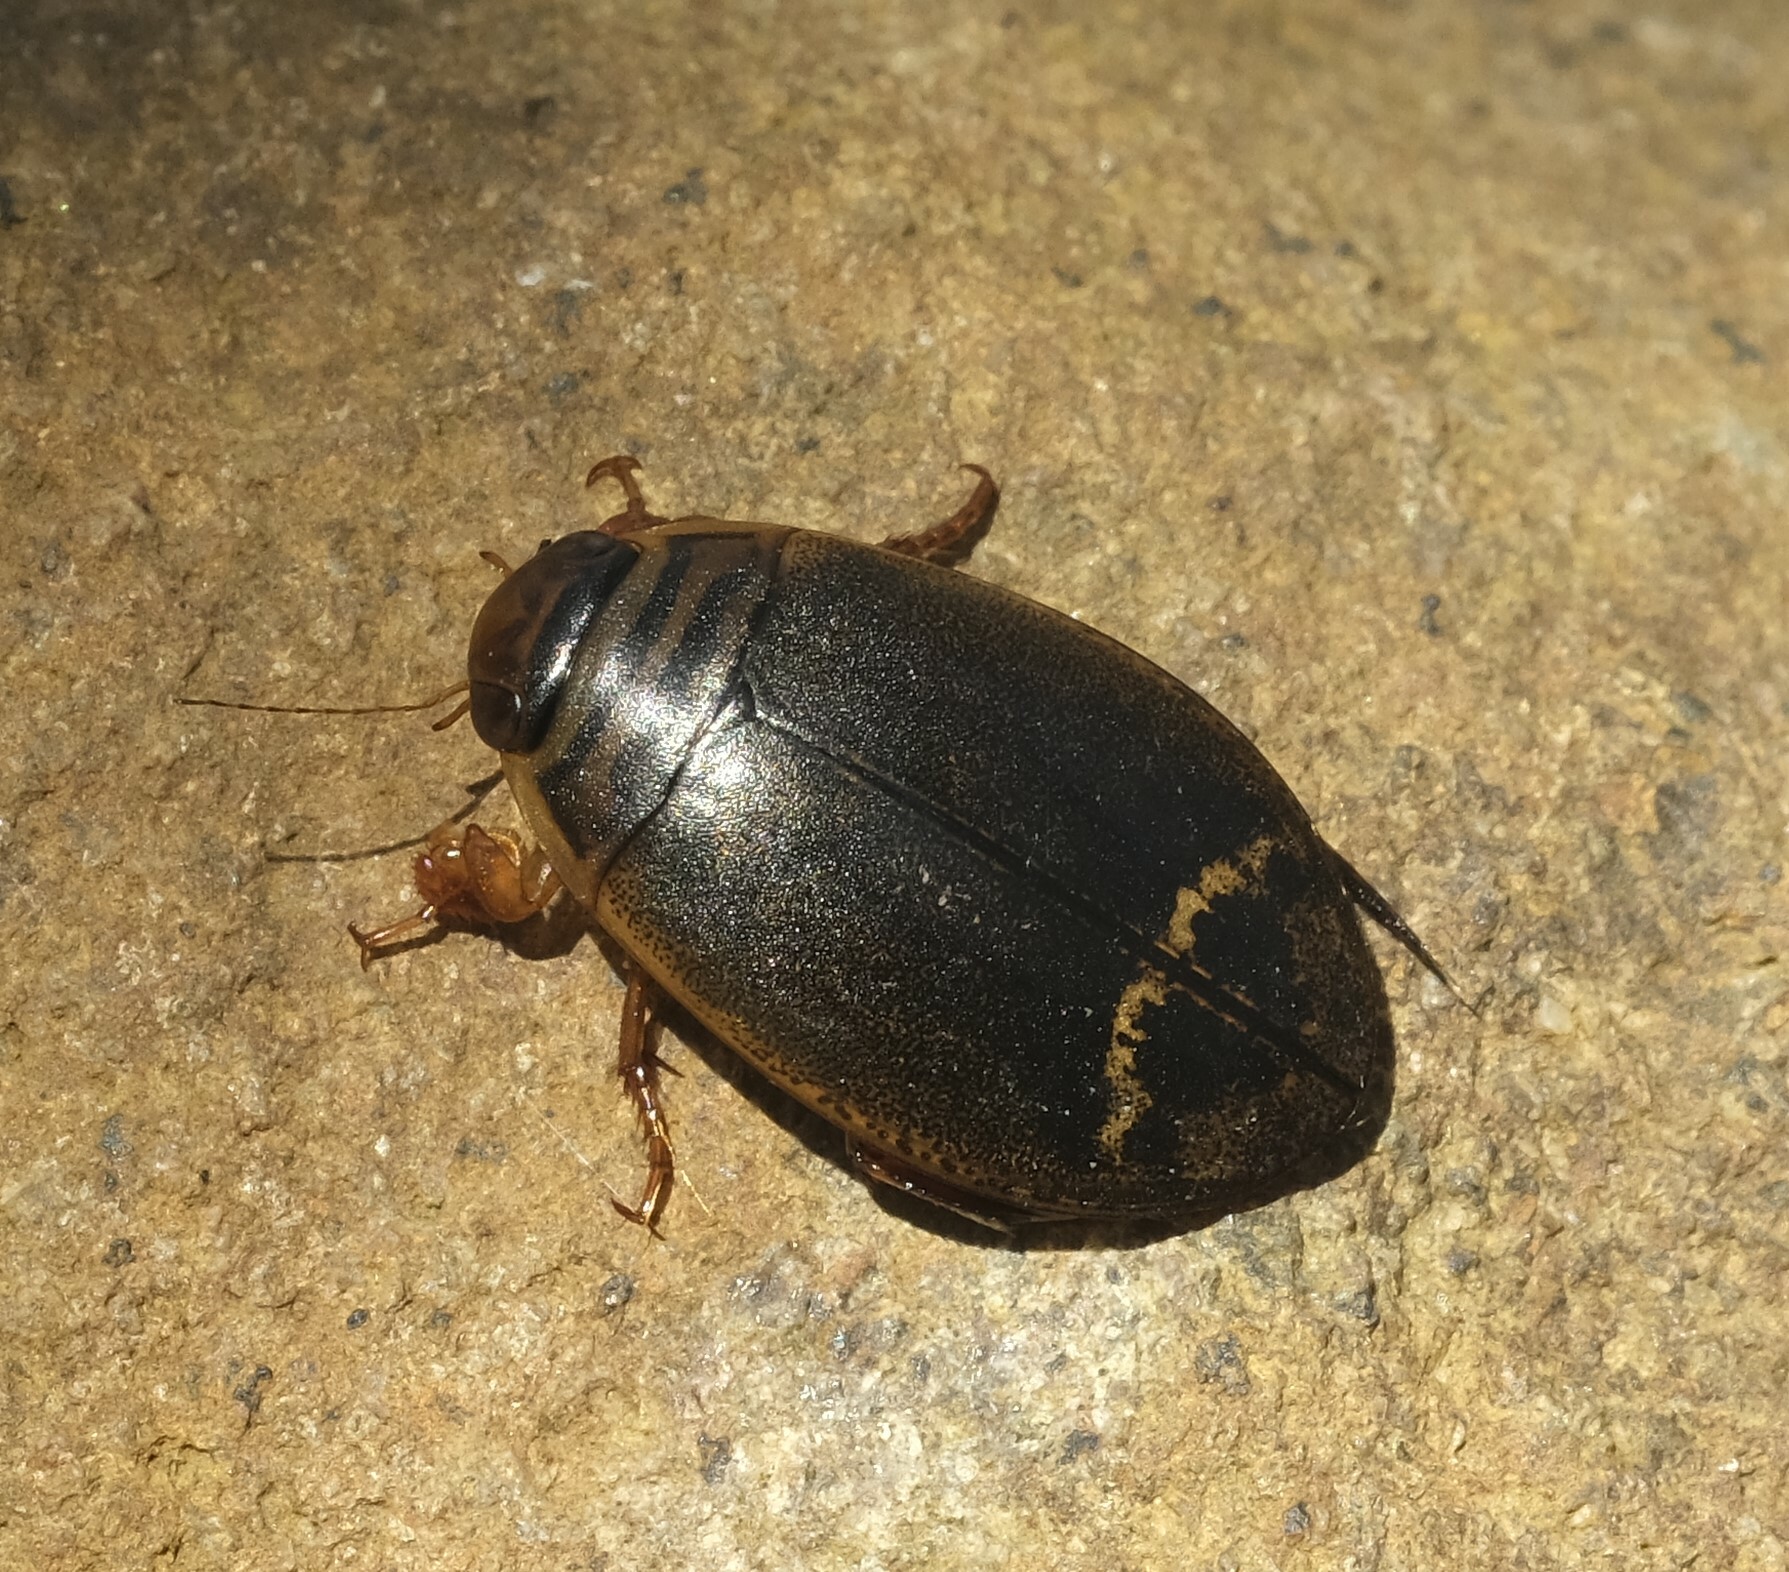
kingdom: Animalia
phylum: Arthropoda
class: Insecta
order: Coleoptera
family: Dytiscidae
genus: Acilius
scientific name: Acilius
